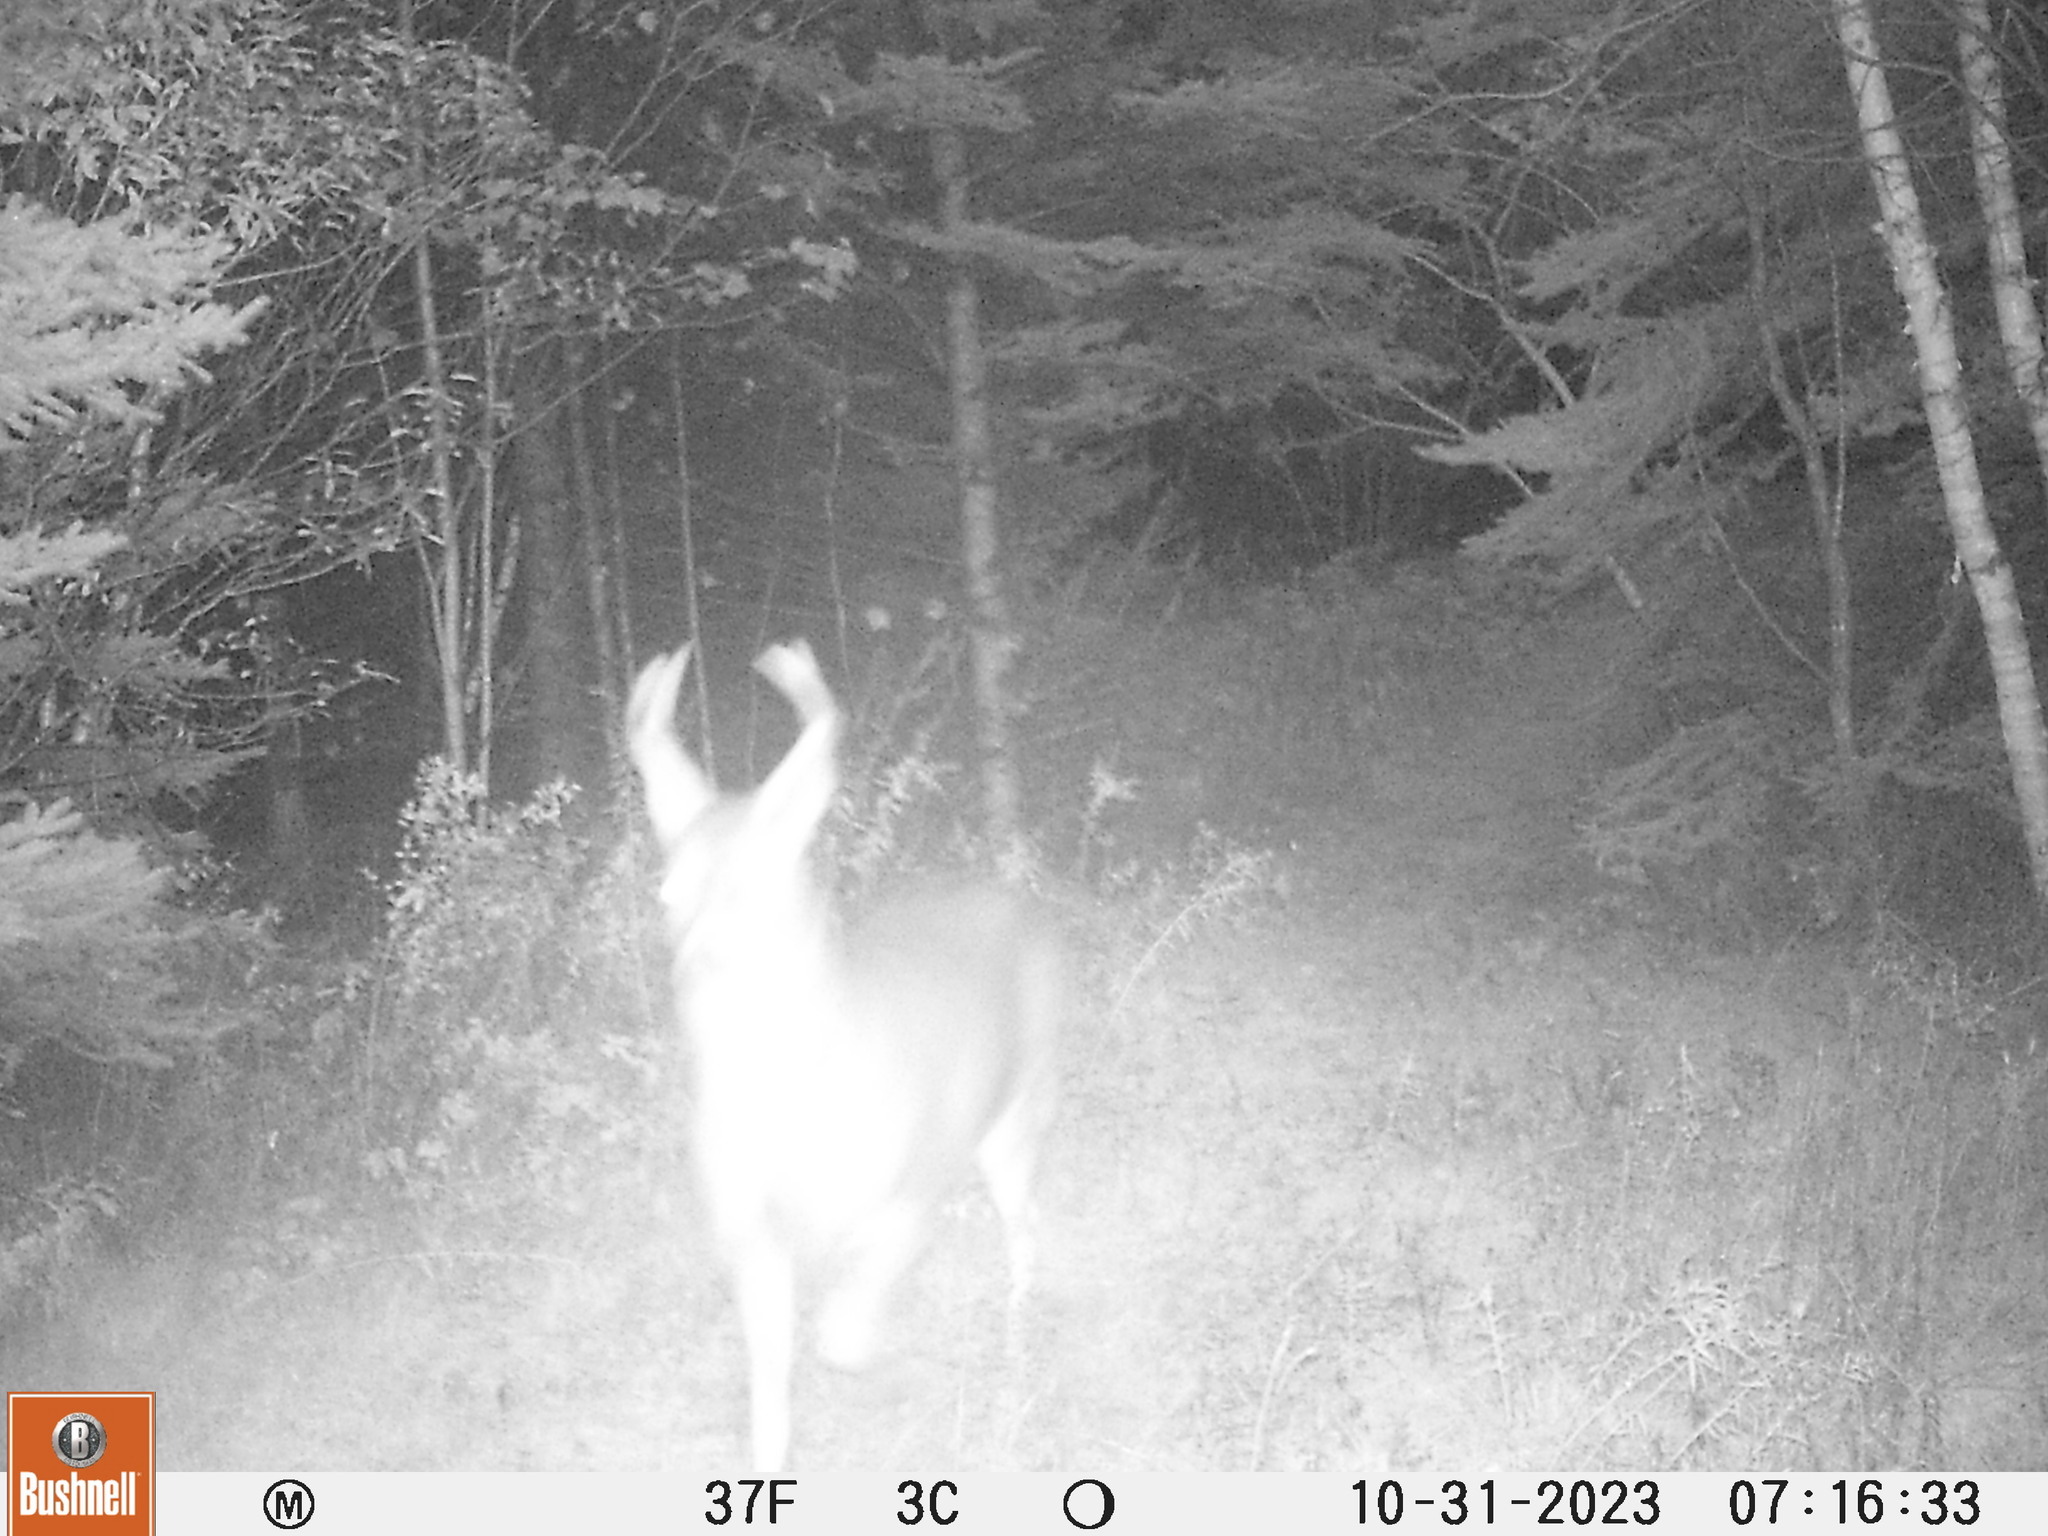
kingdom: Animalia
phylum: Chordata
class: Mammalia
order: Artiodactyla
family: Cervidae
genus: Odocoileus
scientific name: Odocoileus virginianus
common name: White-tailed deer
